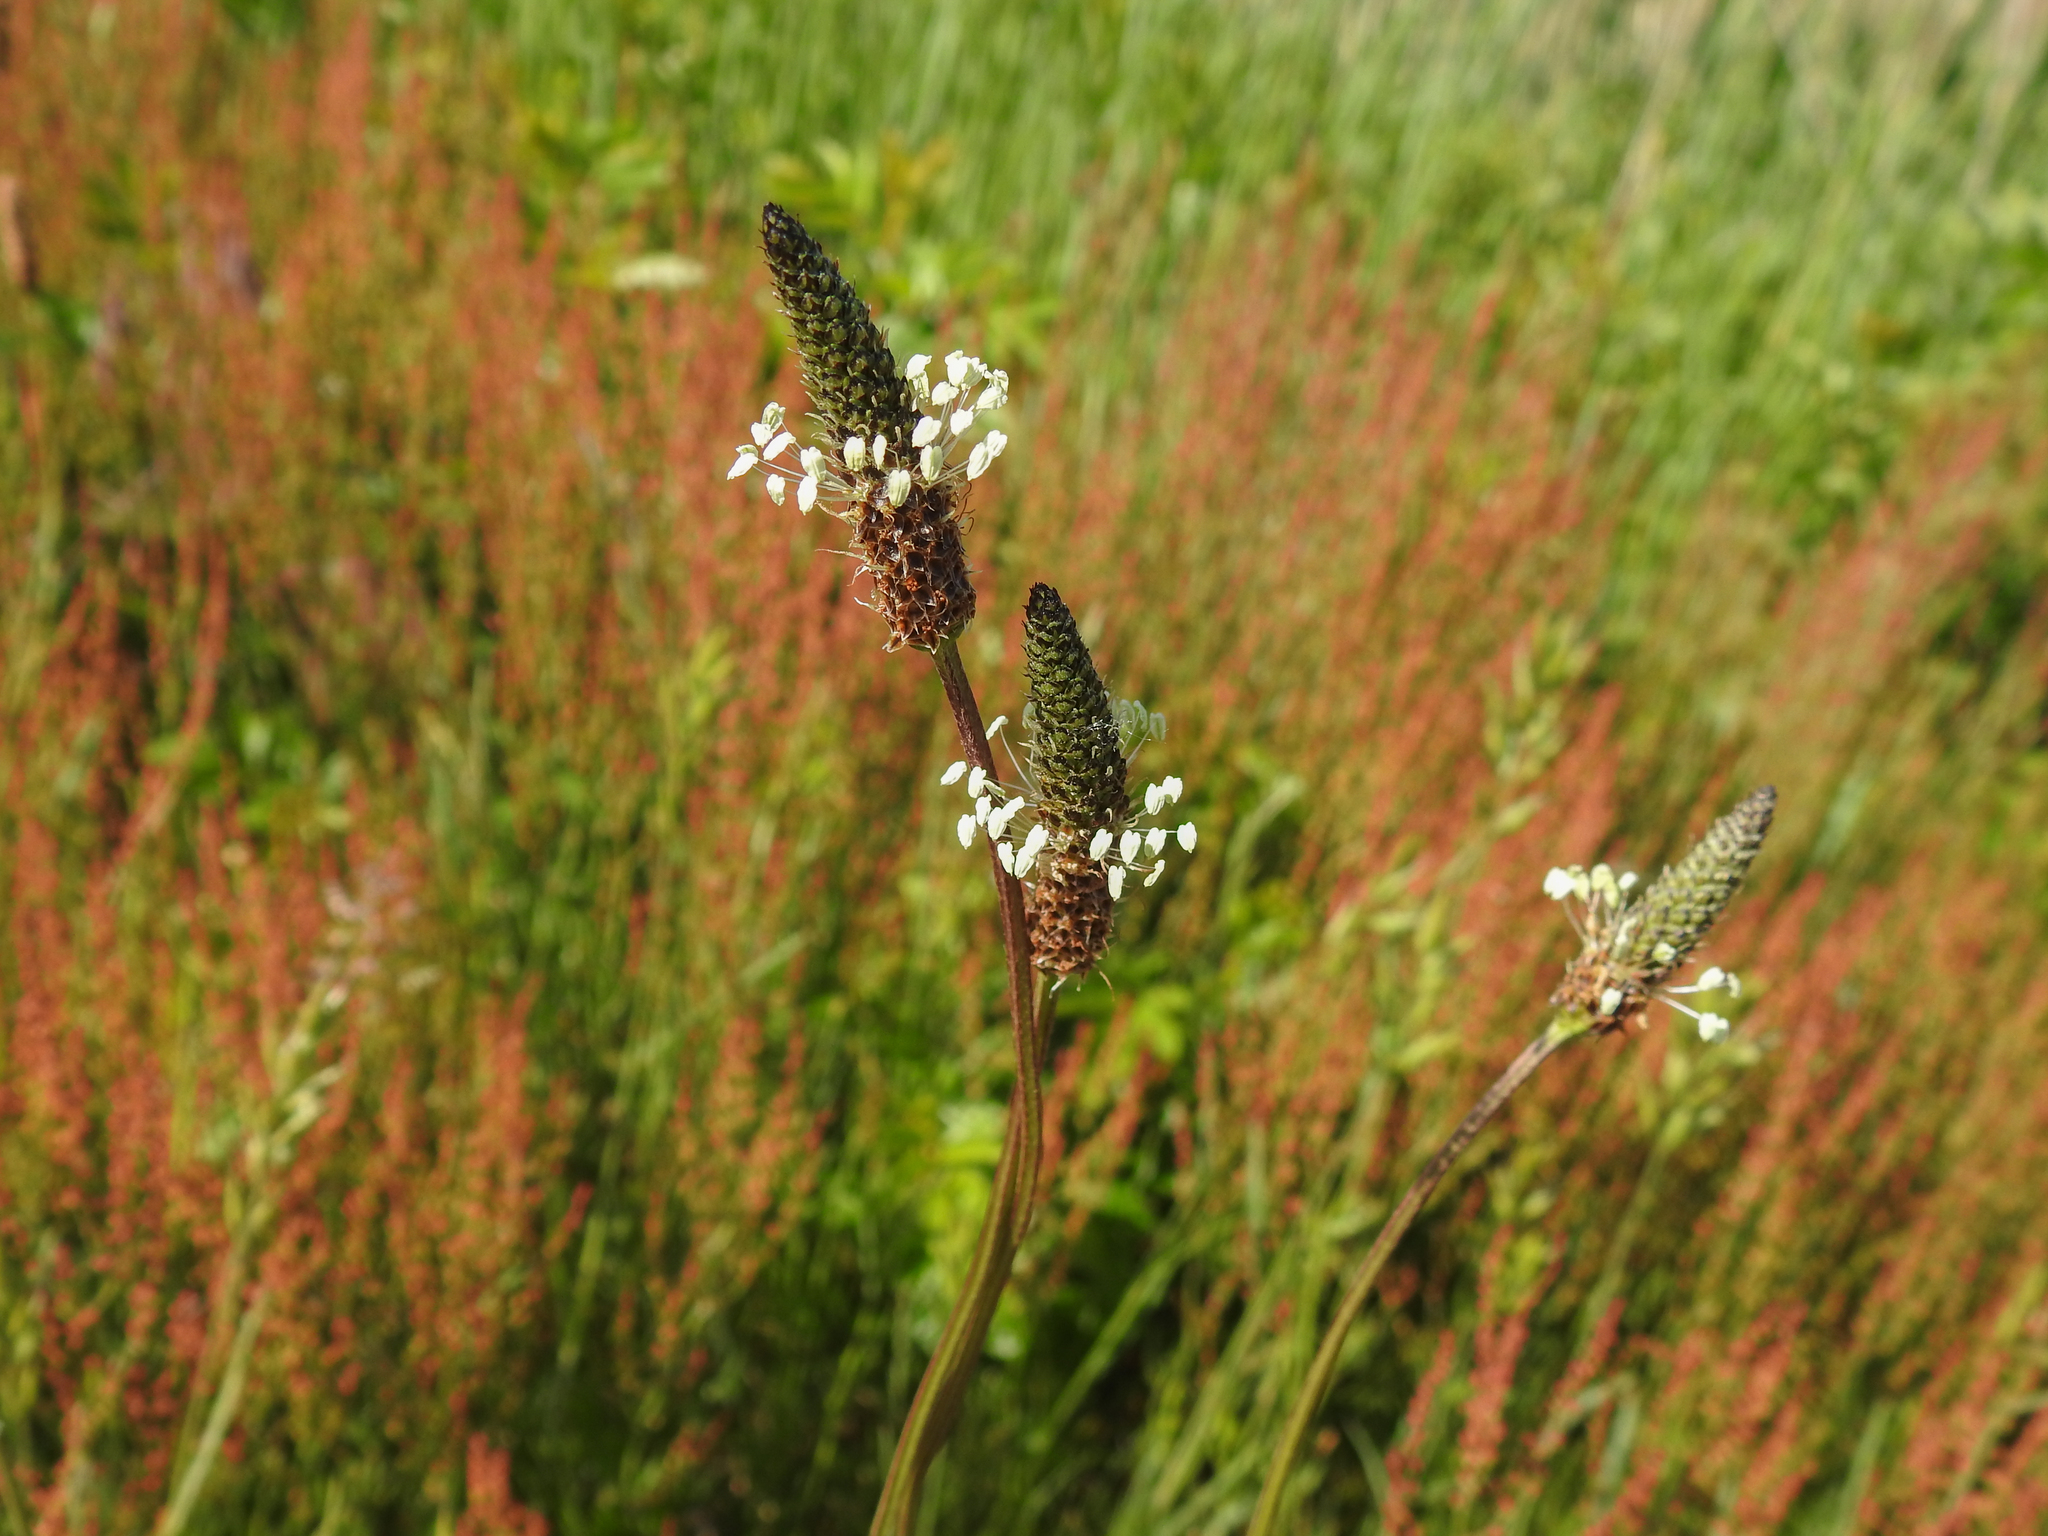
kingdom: Plantae
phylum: Tracheophyta
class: Magnoliopsida
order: Lamiales
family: Plantaginaceae
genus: Plantago
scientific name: Plantago lanceolata
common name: Ribwort plantain
